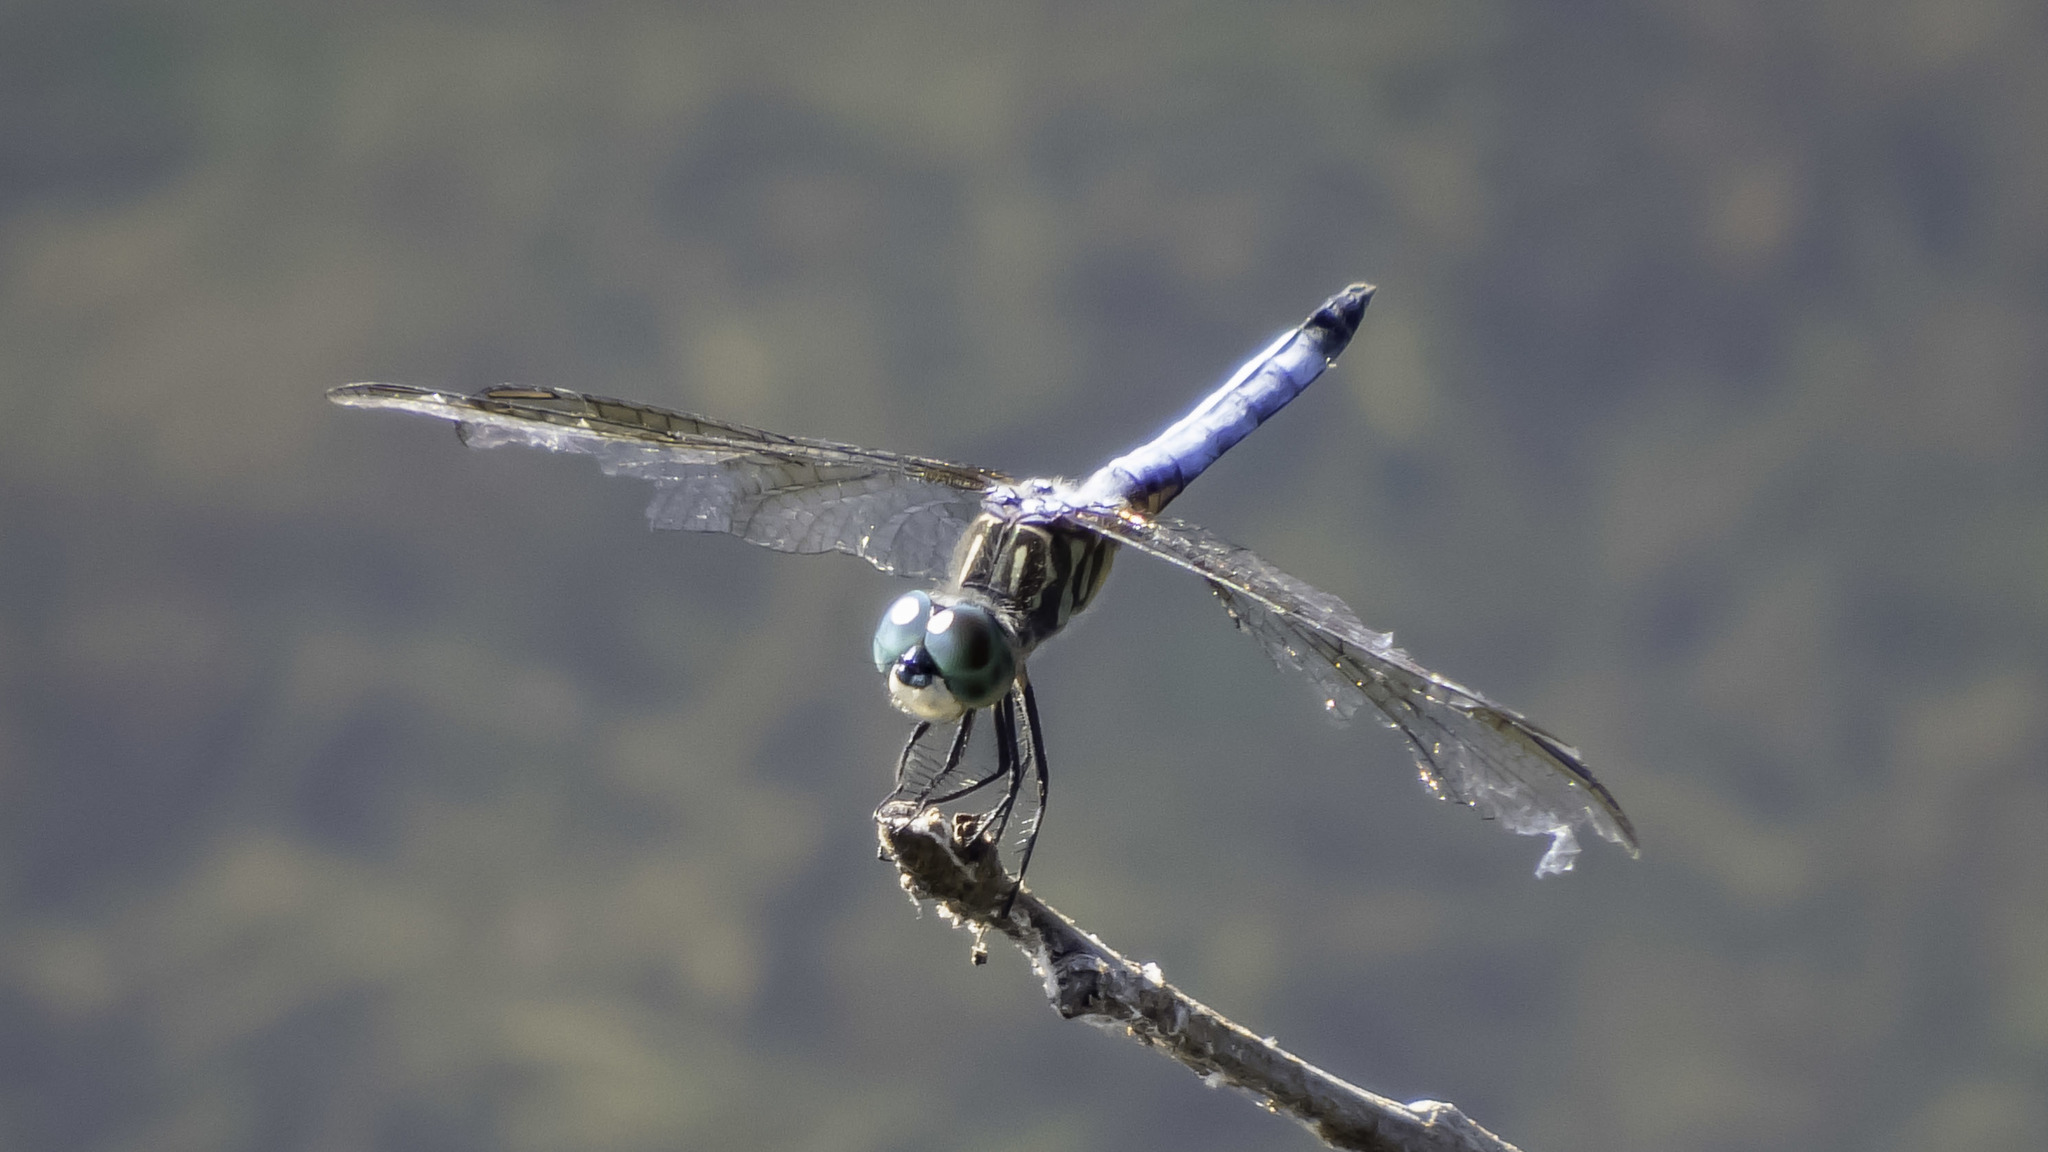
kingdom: Animalia
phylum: Arthropoda
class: Insecta
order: Odonata
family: Libellulidae
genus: Pachydiplax
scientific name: Pachydiplax longipennis
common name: Blue dasher
